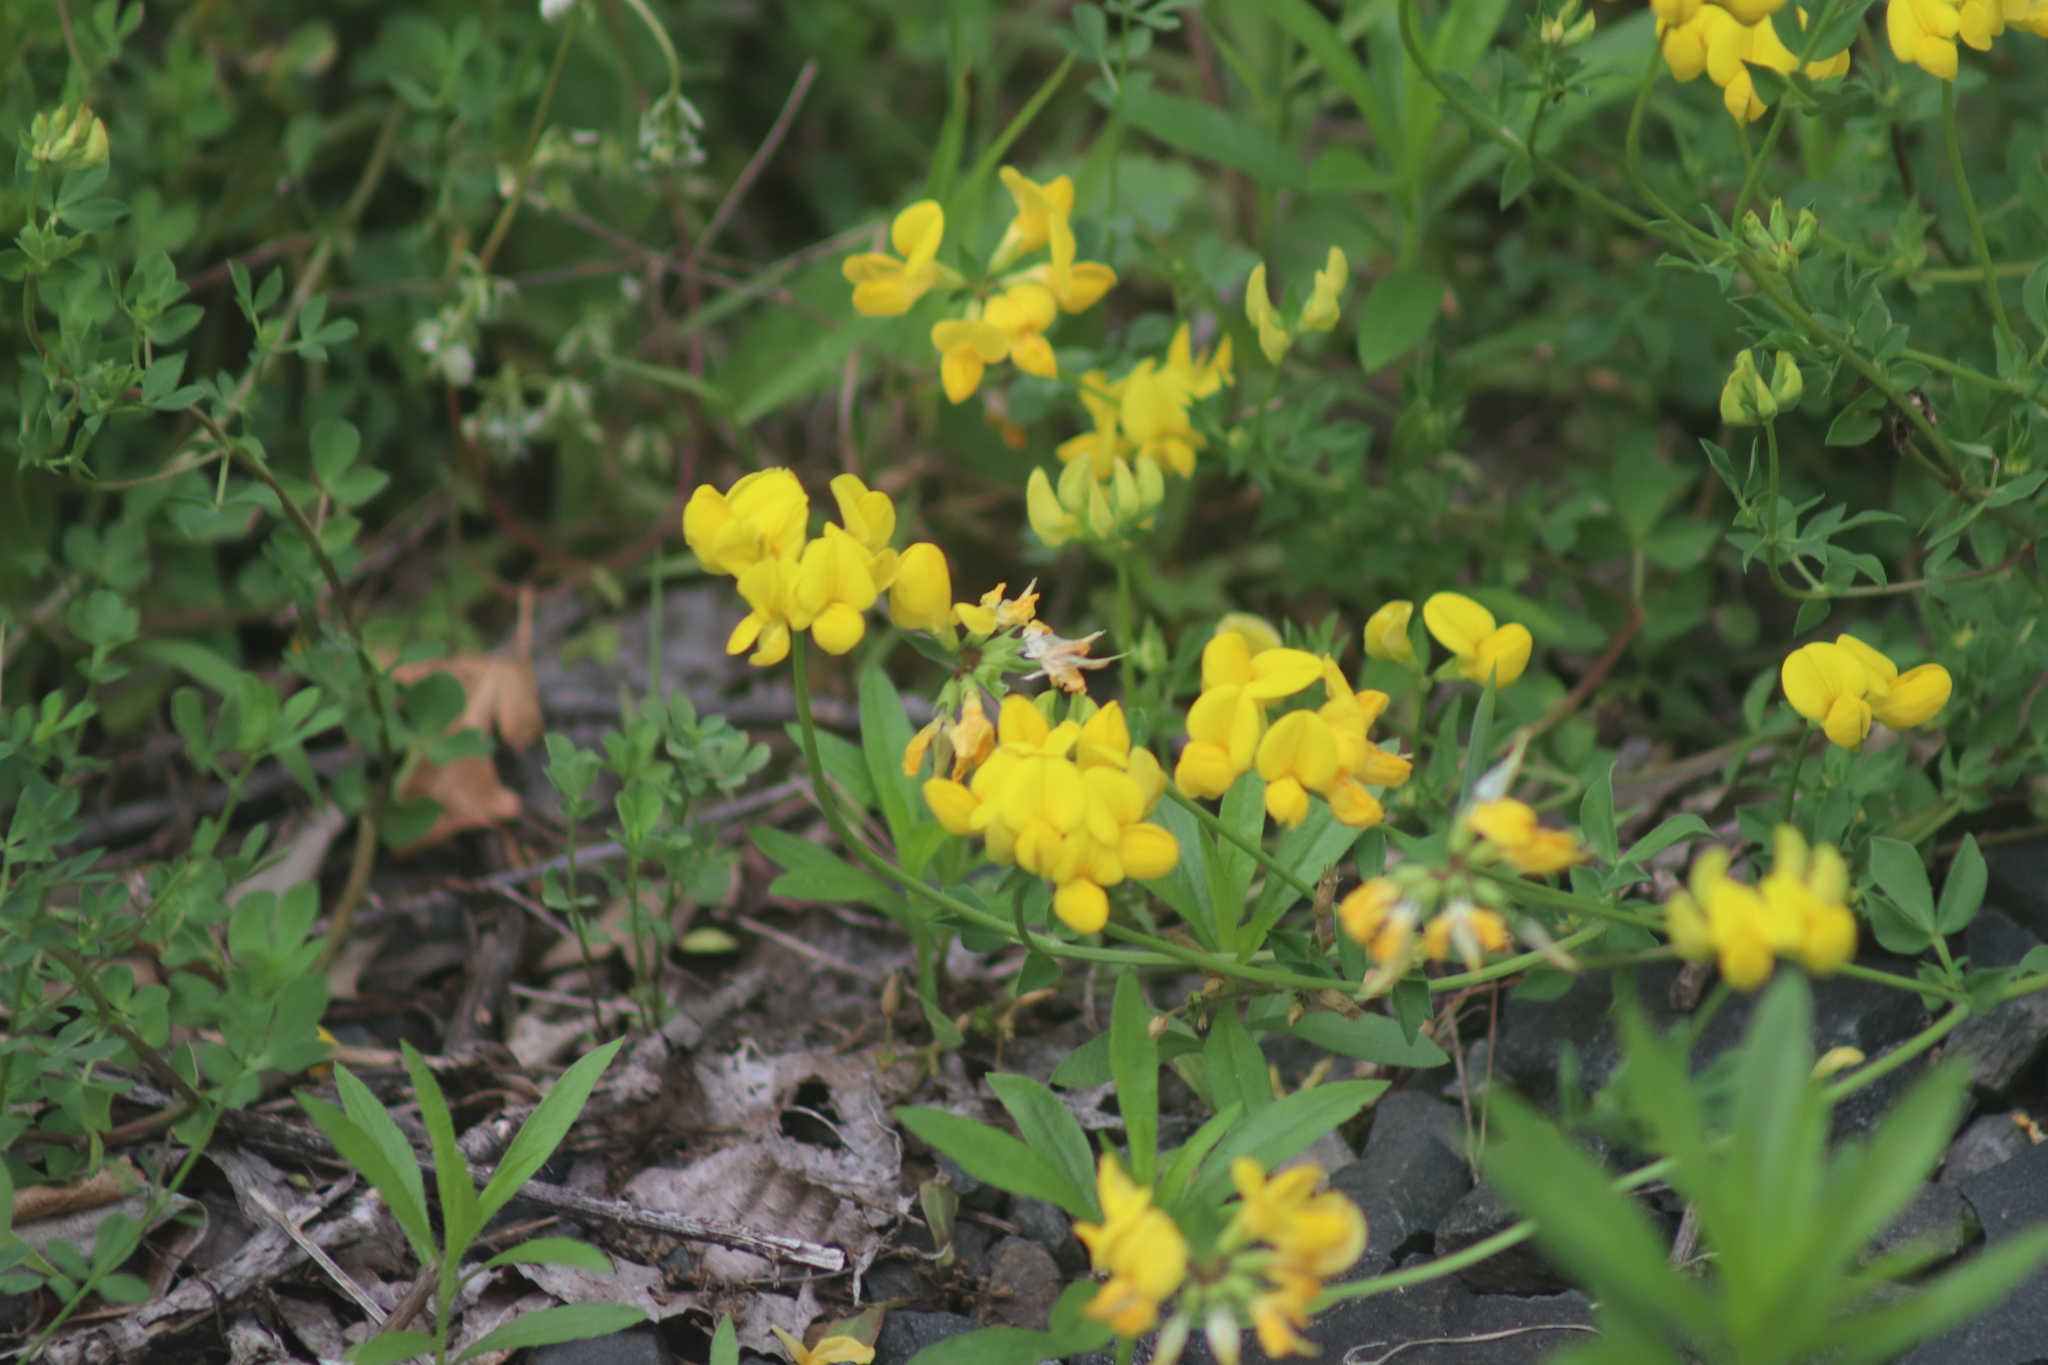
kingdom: Plantae
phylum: Tracheophyta
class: Magnoliopsida
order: Fabales
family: Fabaceae
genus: Lotus
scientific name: Lotus corniculatus
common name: Common bird's-foot-trefoil
